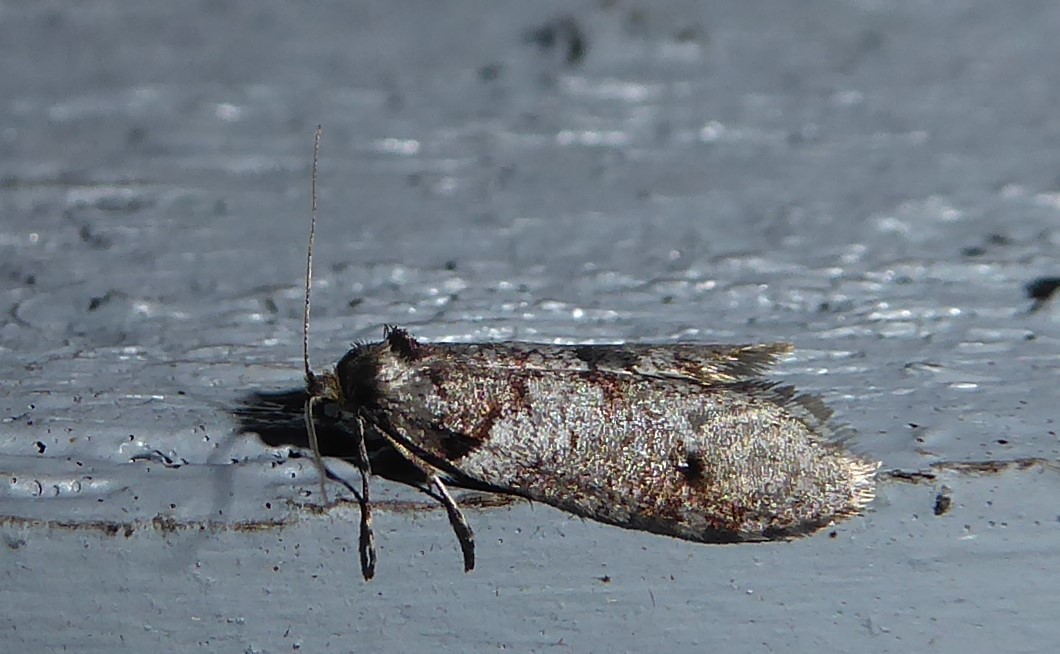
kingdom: Animalia
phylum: Arthropoda
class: Insecta
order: Lepidoptera
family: Psychidae
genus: Lepidoscia
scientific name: Lepidoscia heliochares
